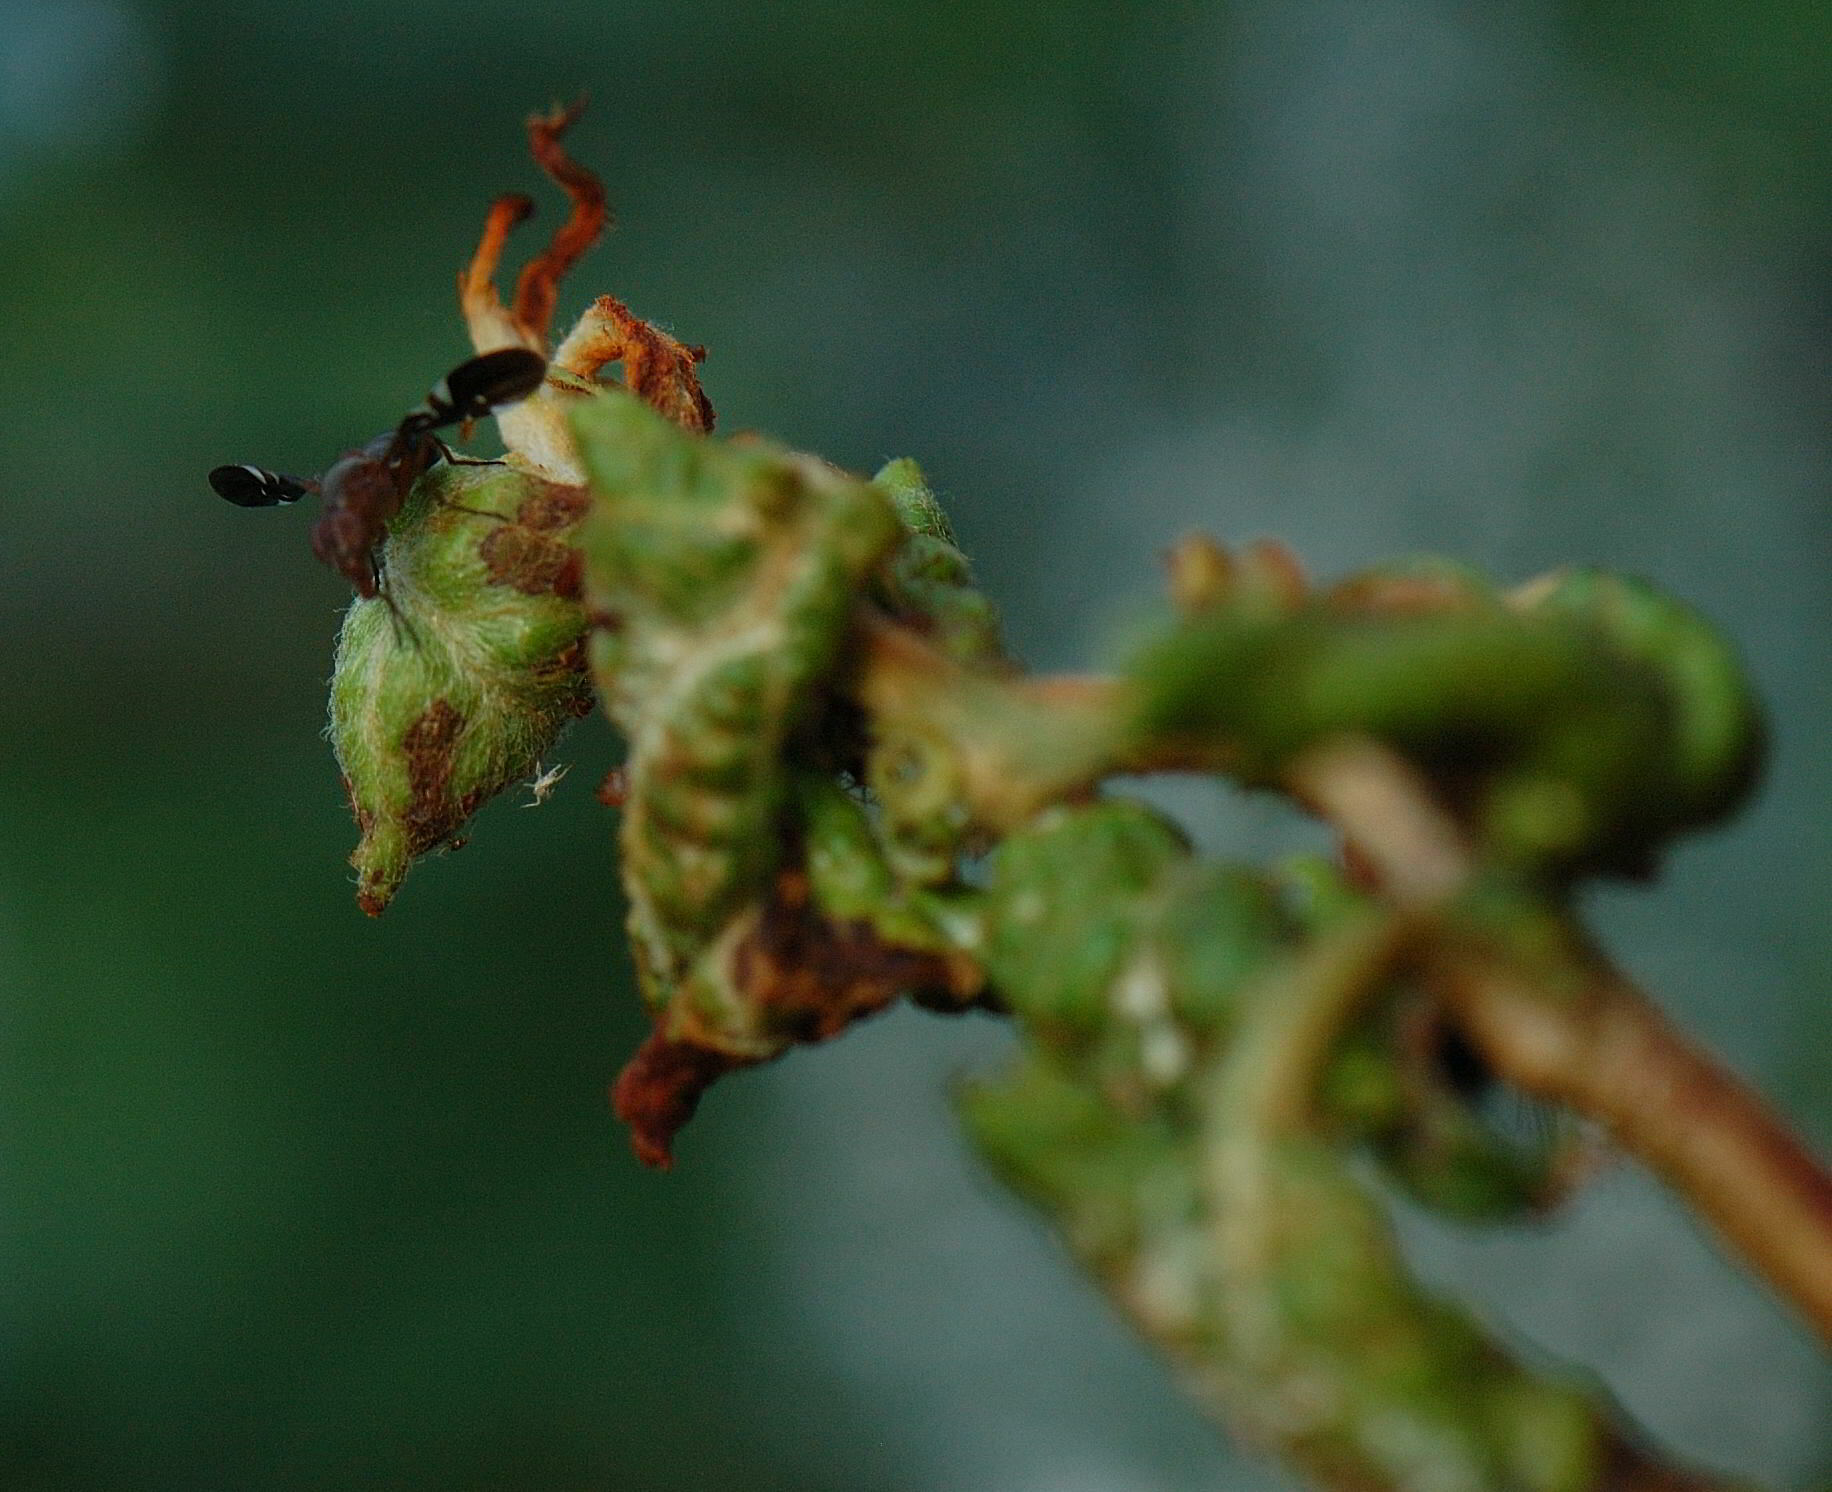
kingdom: Animalia
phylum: Arthropoda
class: Insecta
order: Diptera
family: Ulidiidae
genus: Delphinia
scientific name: Delphinia picta
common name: Common picture-winged fly
